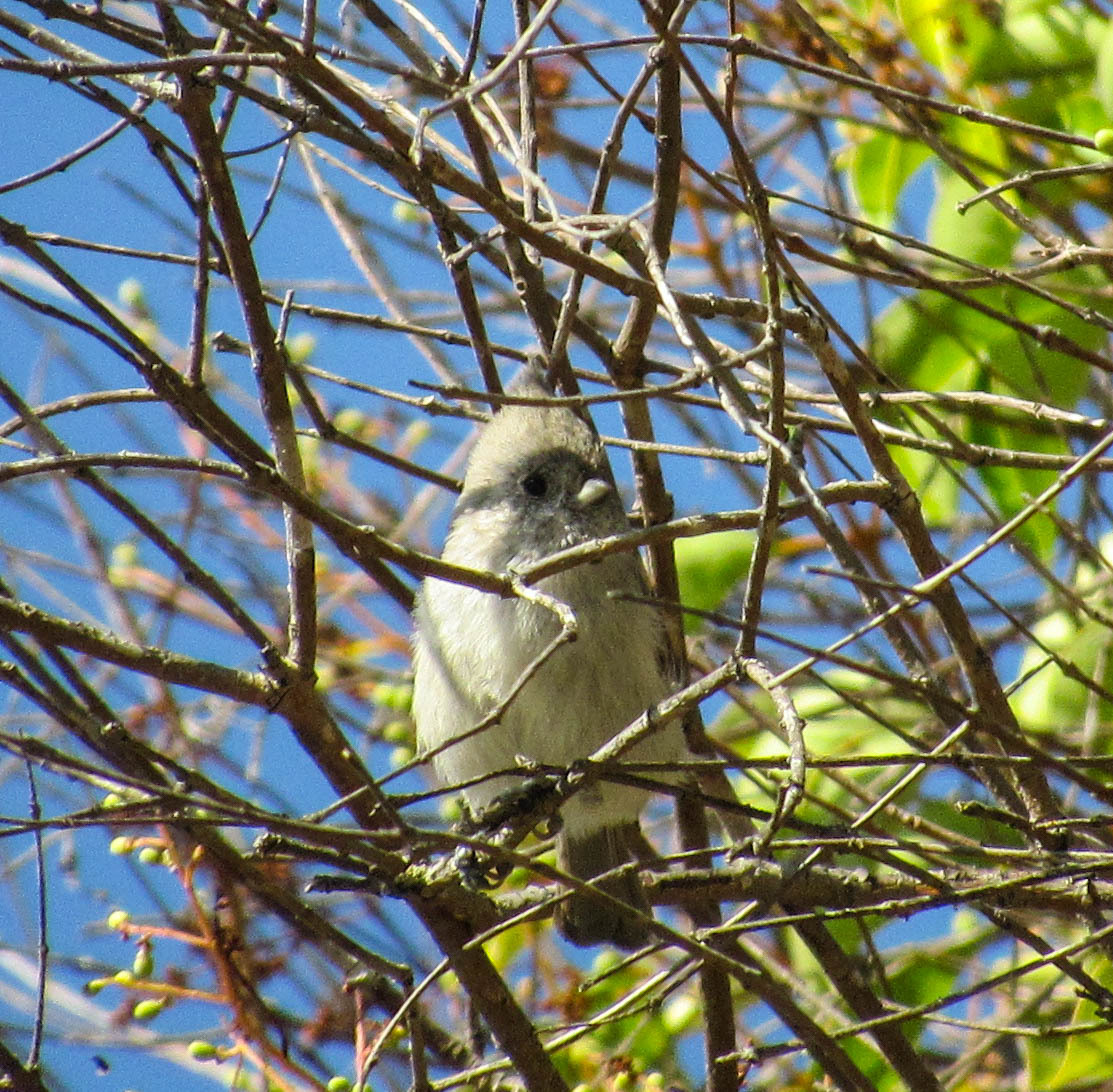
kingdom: Animalia
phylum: Chordata
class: Aves
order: Passeriformes
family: Paridae
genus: Baeolophus
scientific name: Baeolophus inornatus
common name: Oak titmouse
